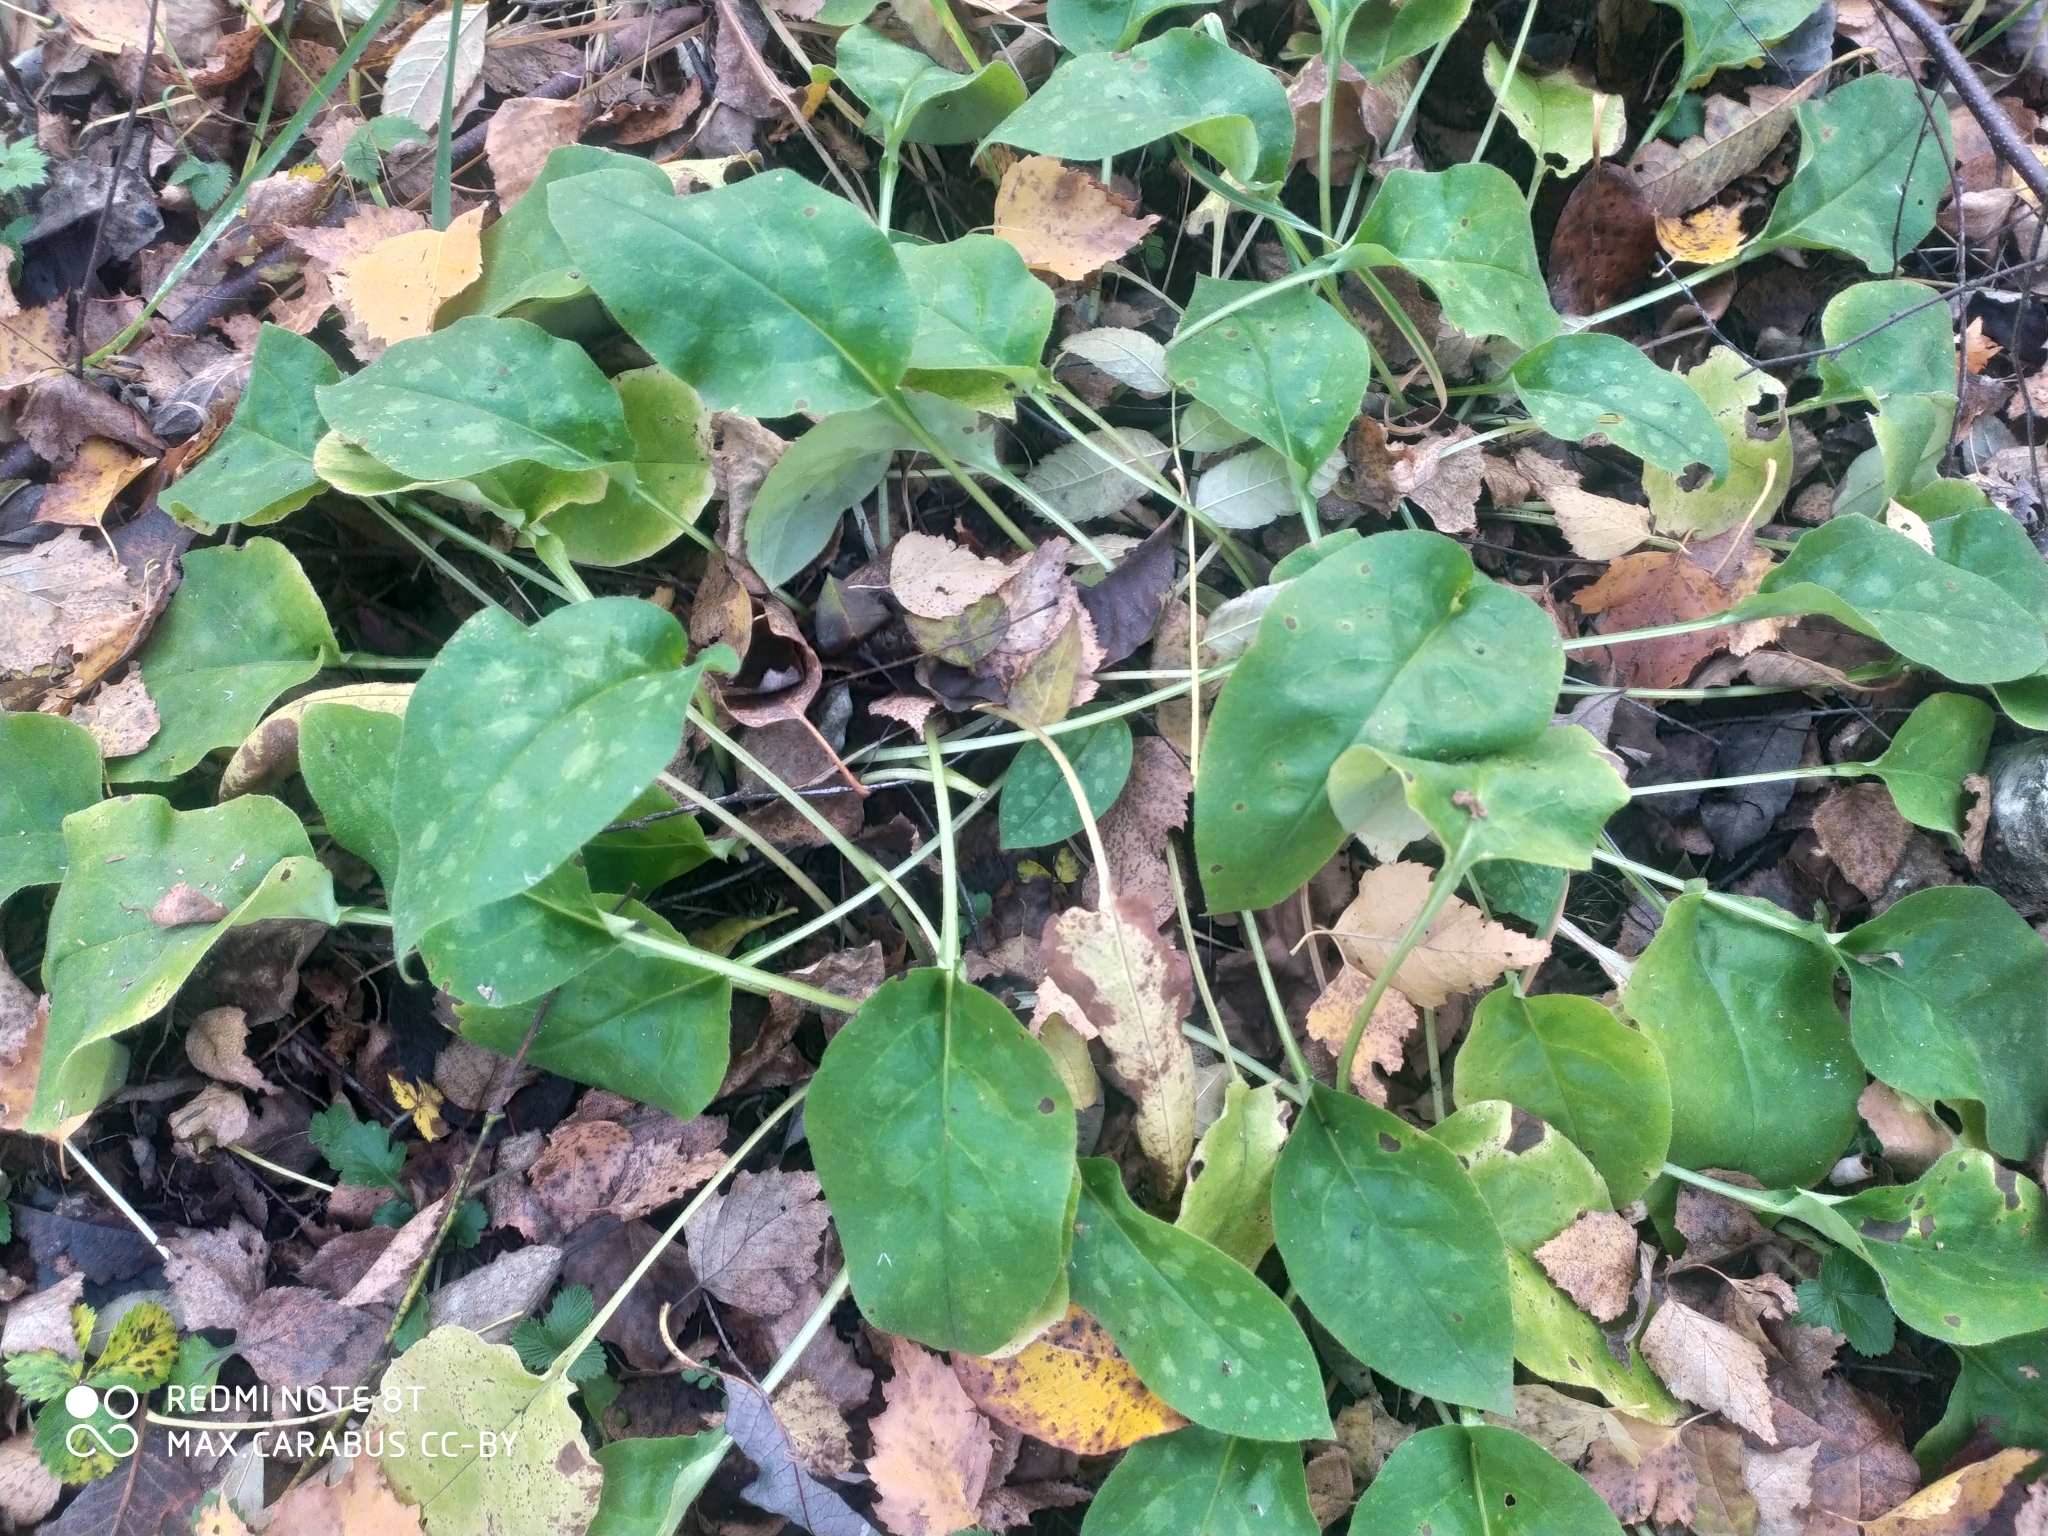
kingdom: Plantae
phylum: Tracheophyta
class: Magnoliopsida
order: Boraginales
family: Boraginaceae
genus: Pulmonaria
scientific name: Pulmonaria obscura
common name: Suffolk lungwort
